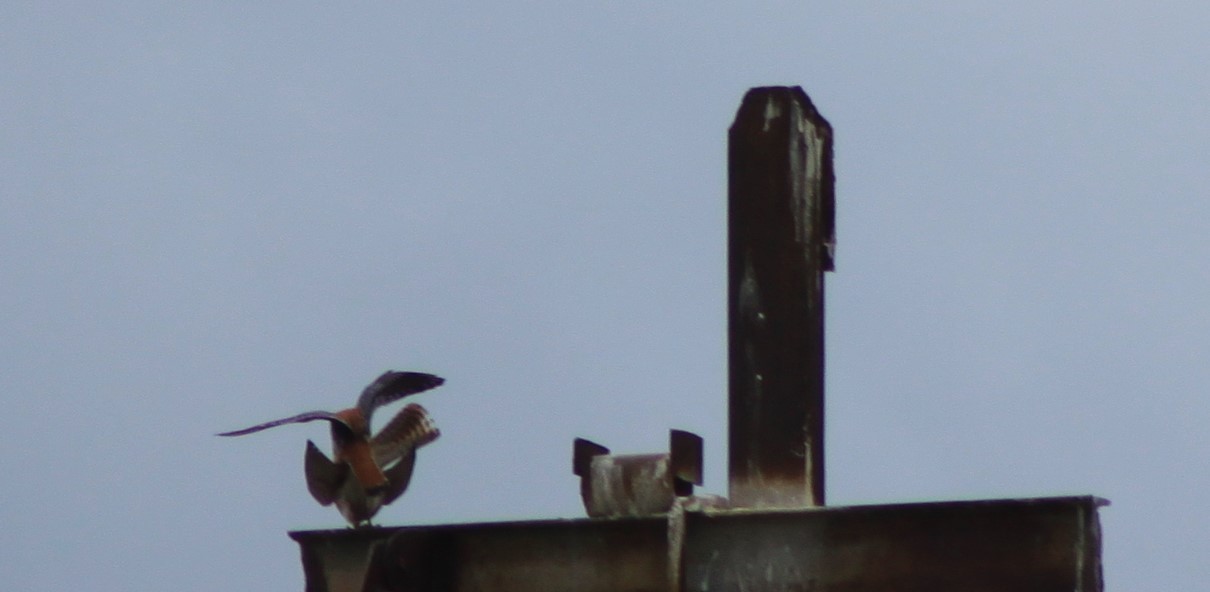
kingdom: Animalia
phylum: Chordata
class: Aves
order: Falconiformes
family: Falconidae
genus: Falco
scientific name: Falco sparverius
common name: American kestrel
